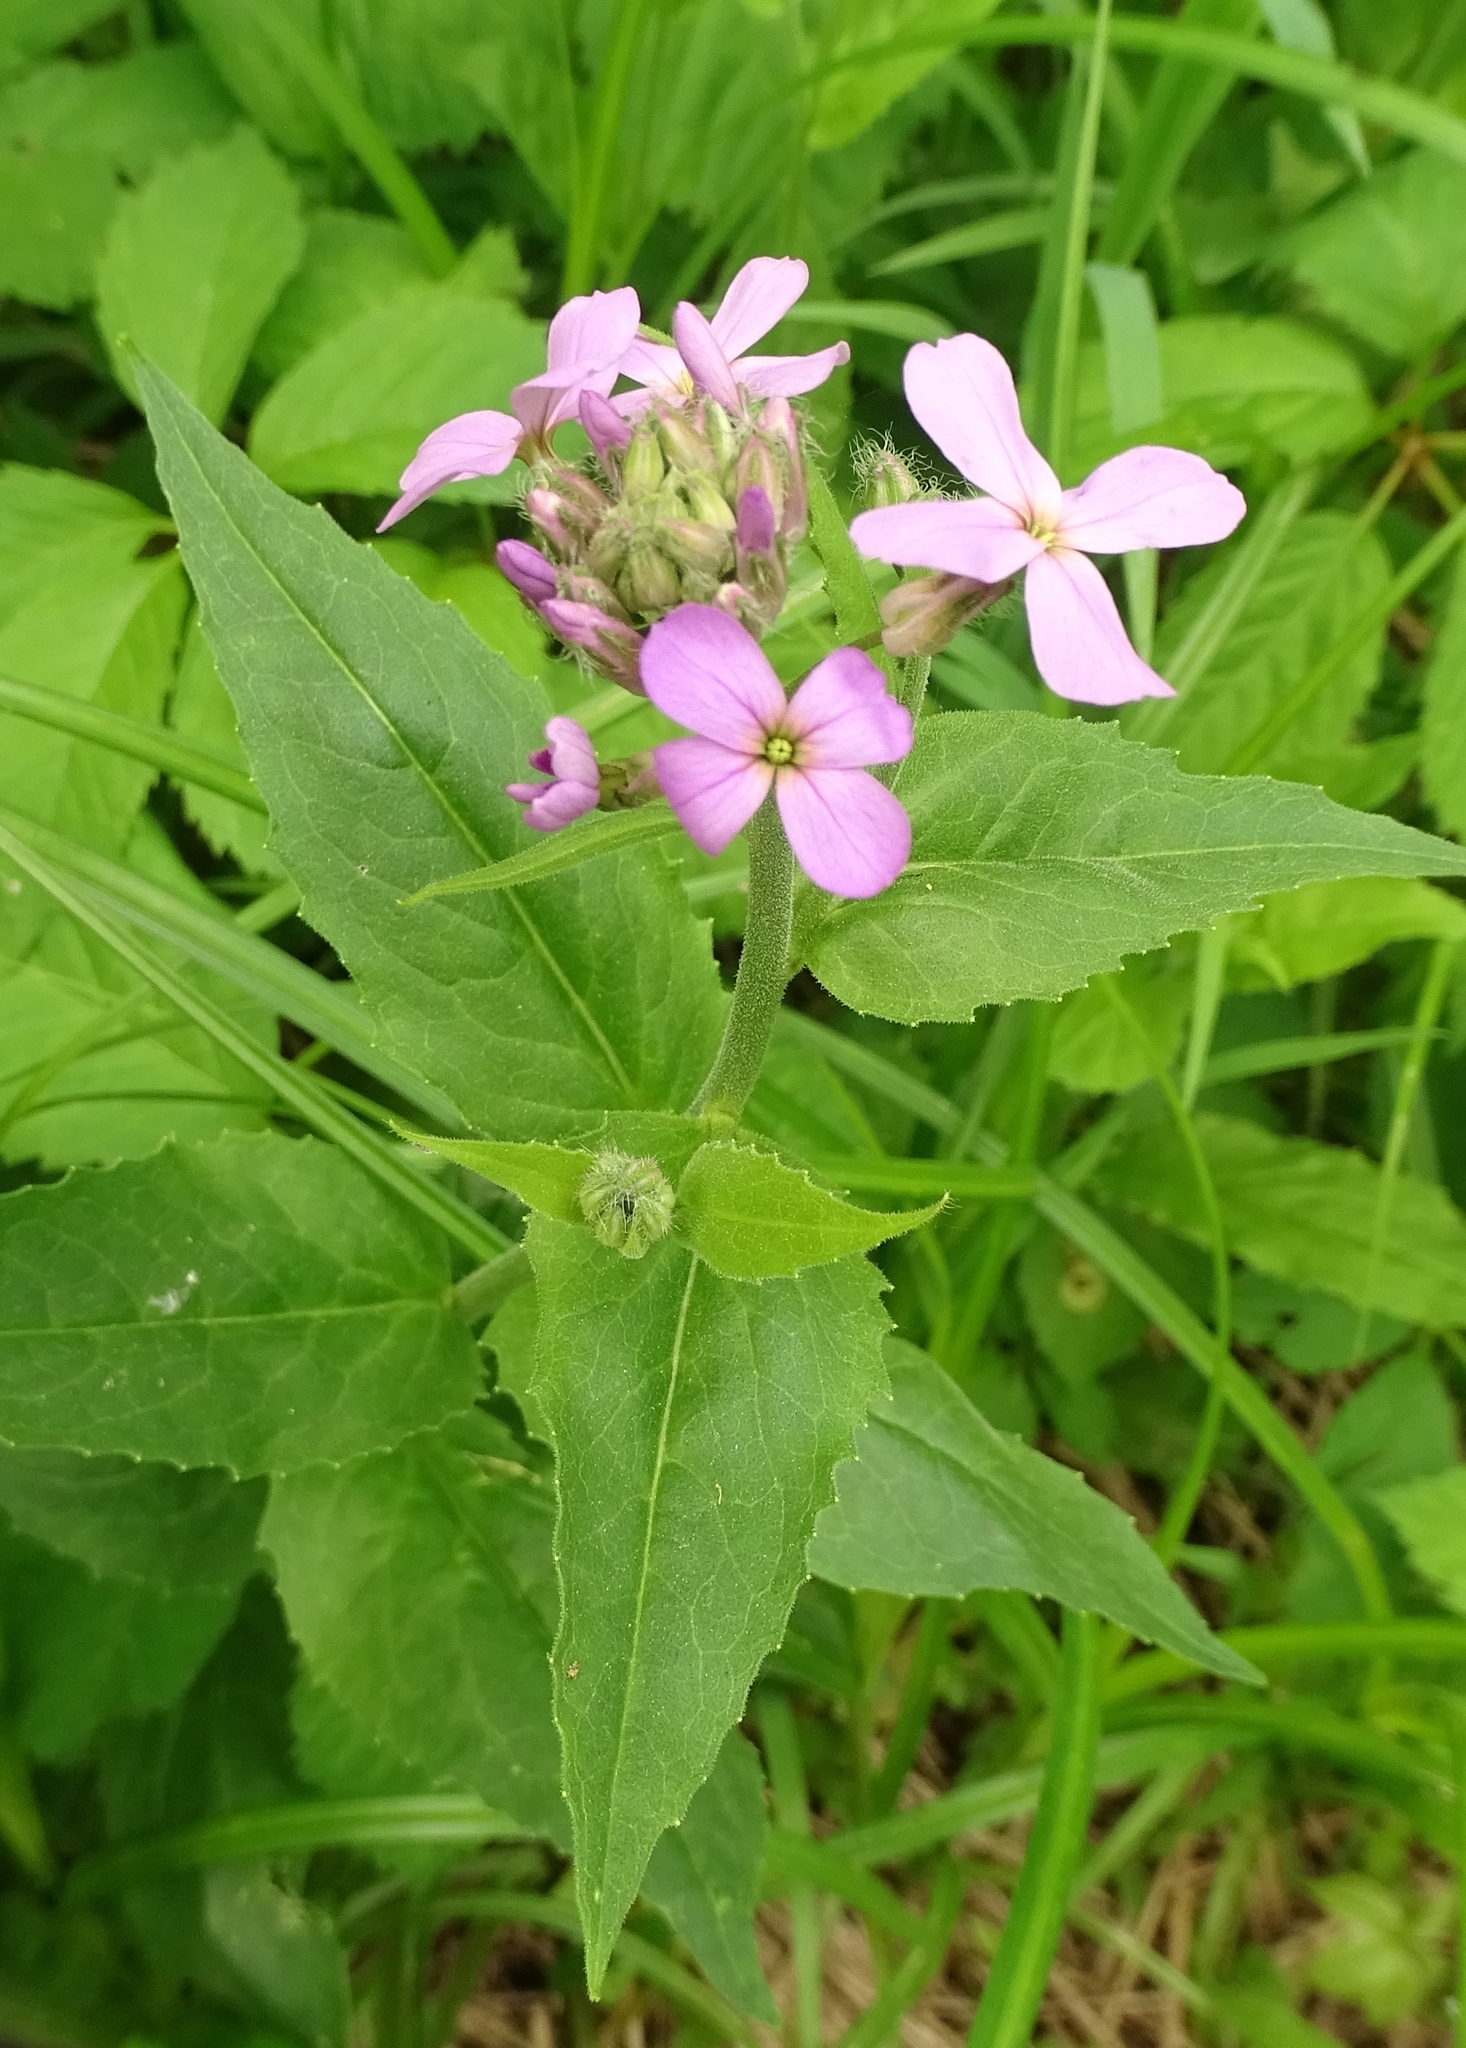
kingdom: Plantae
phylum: Tracheophyta
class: Magnoliopsida
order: Brassicales
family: Brassicaceae
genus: Hesperis
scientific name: Hesperis matronalis
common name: Dame's-violet
